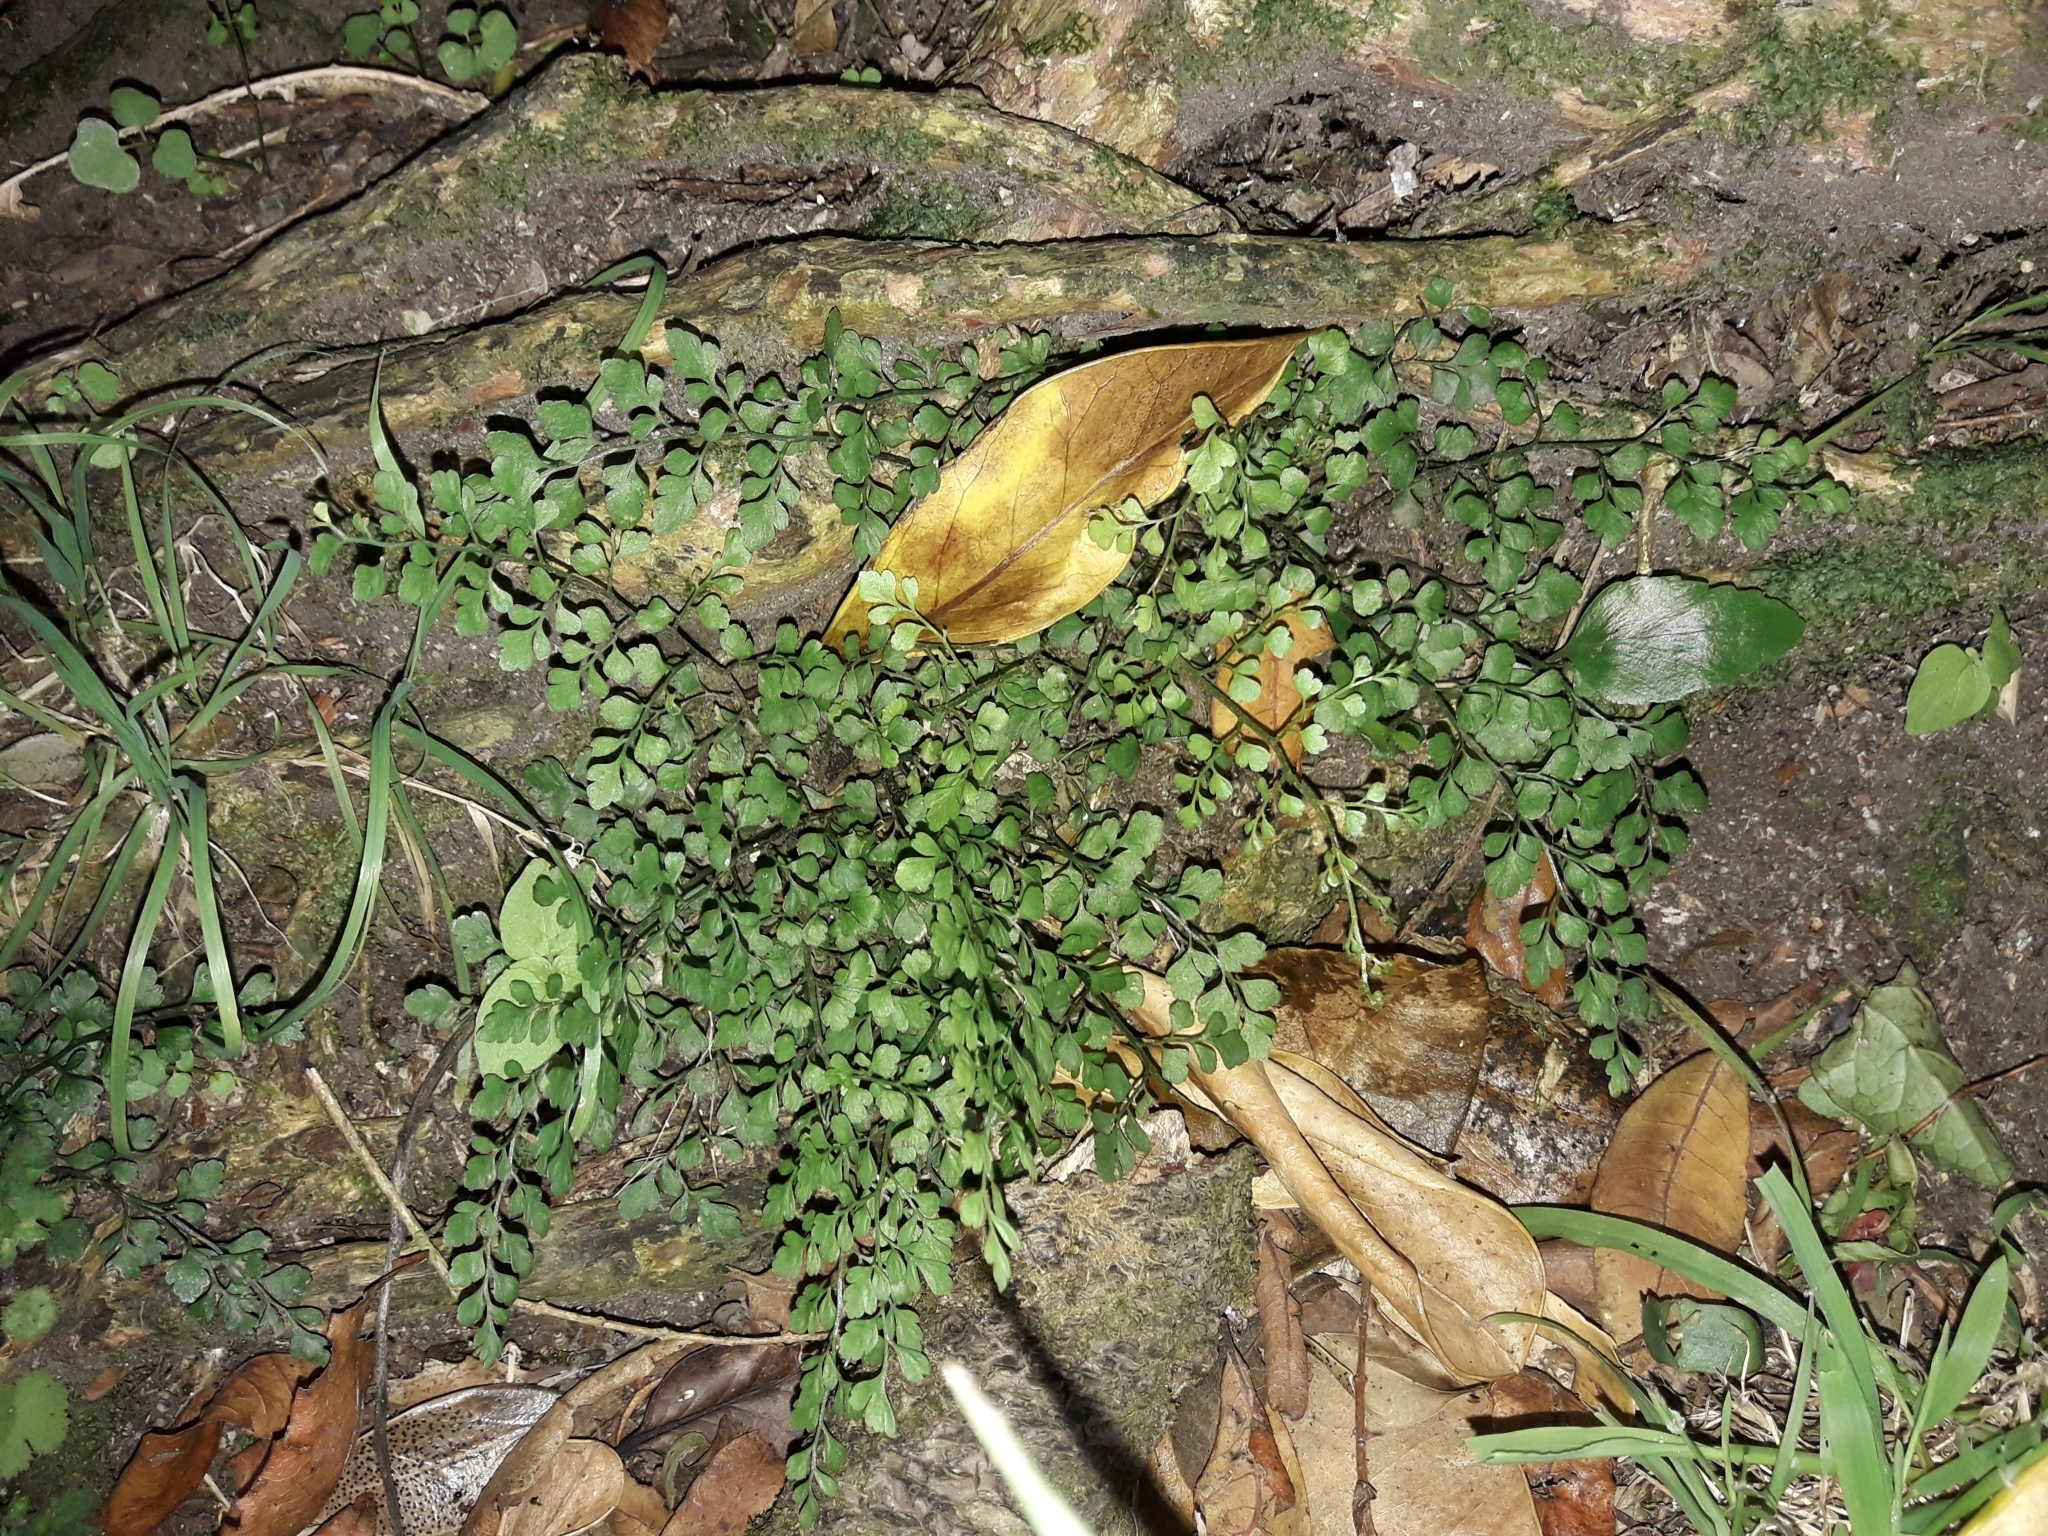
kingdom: Plantae
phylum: Tracheophyta
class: Polypodiopsida
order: Polypodiales
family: Aspleniaceae
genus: Asplenium
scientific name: Asplenium hookerianum
